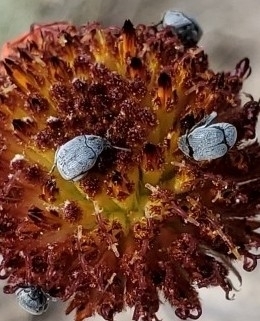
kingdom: Animalia
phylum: Arthropoda
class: Insecta
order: Coleoptera
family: Chrysomelidae
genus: Stator
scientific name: Stator pruininus
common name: Leaf beetle
